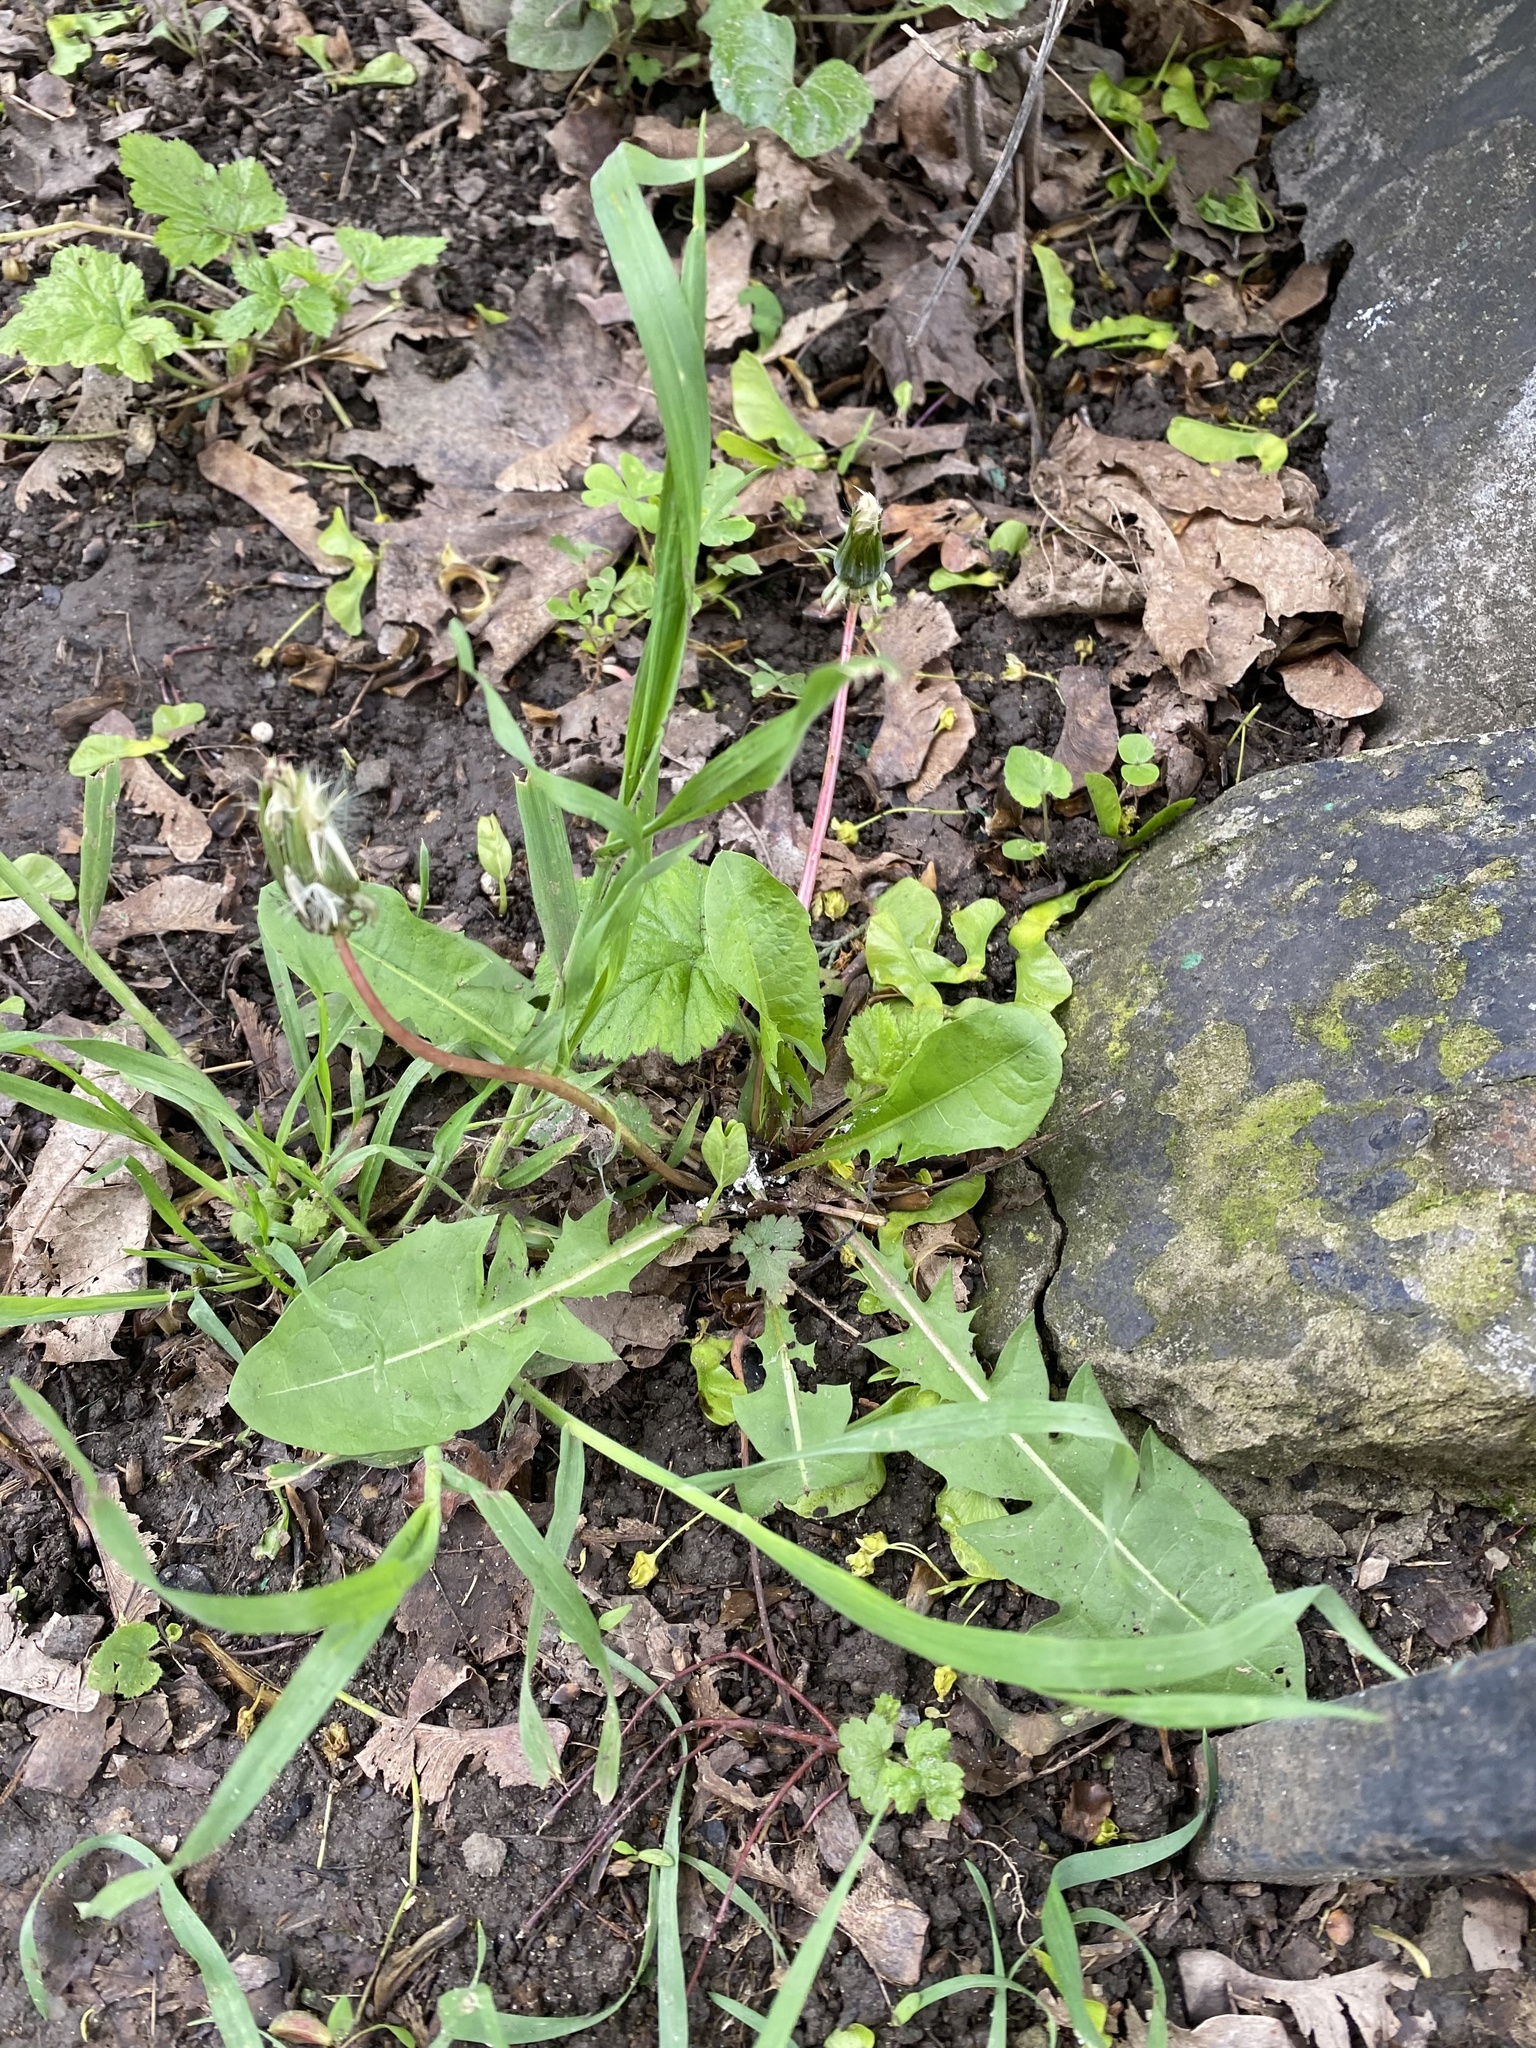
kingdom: Plantae
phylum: Tracheophyta
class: Magnoliopsida
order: Asterales
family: Asteraceae
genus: Taraxacum
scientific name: Taraxacum officinale
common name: Common dandelion
